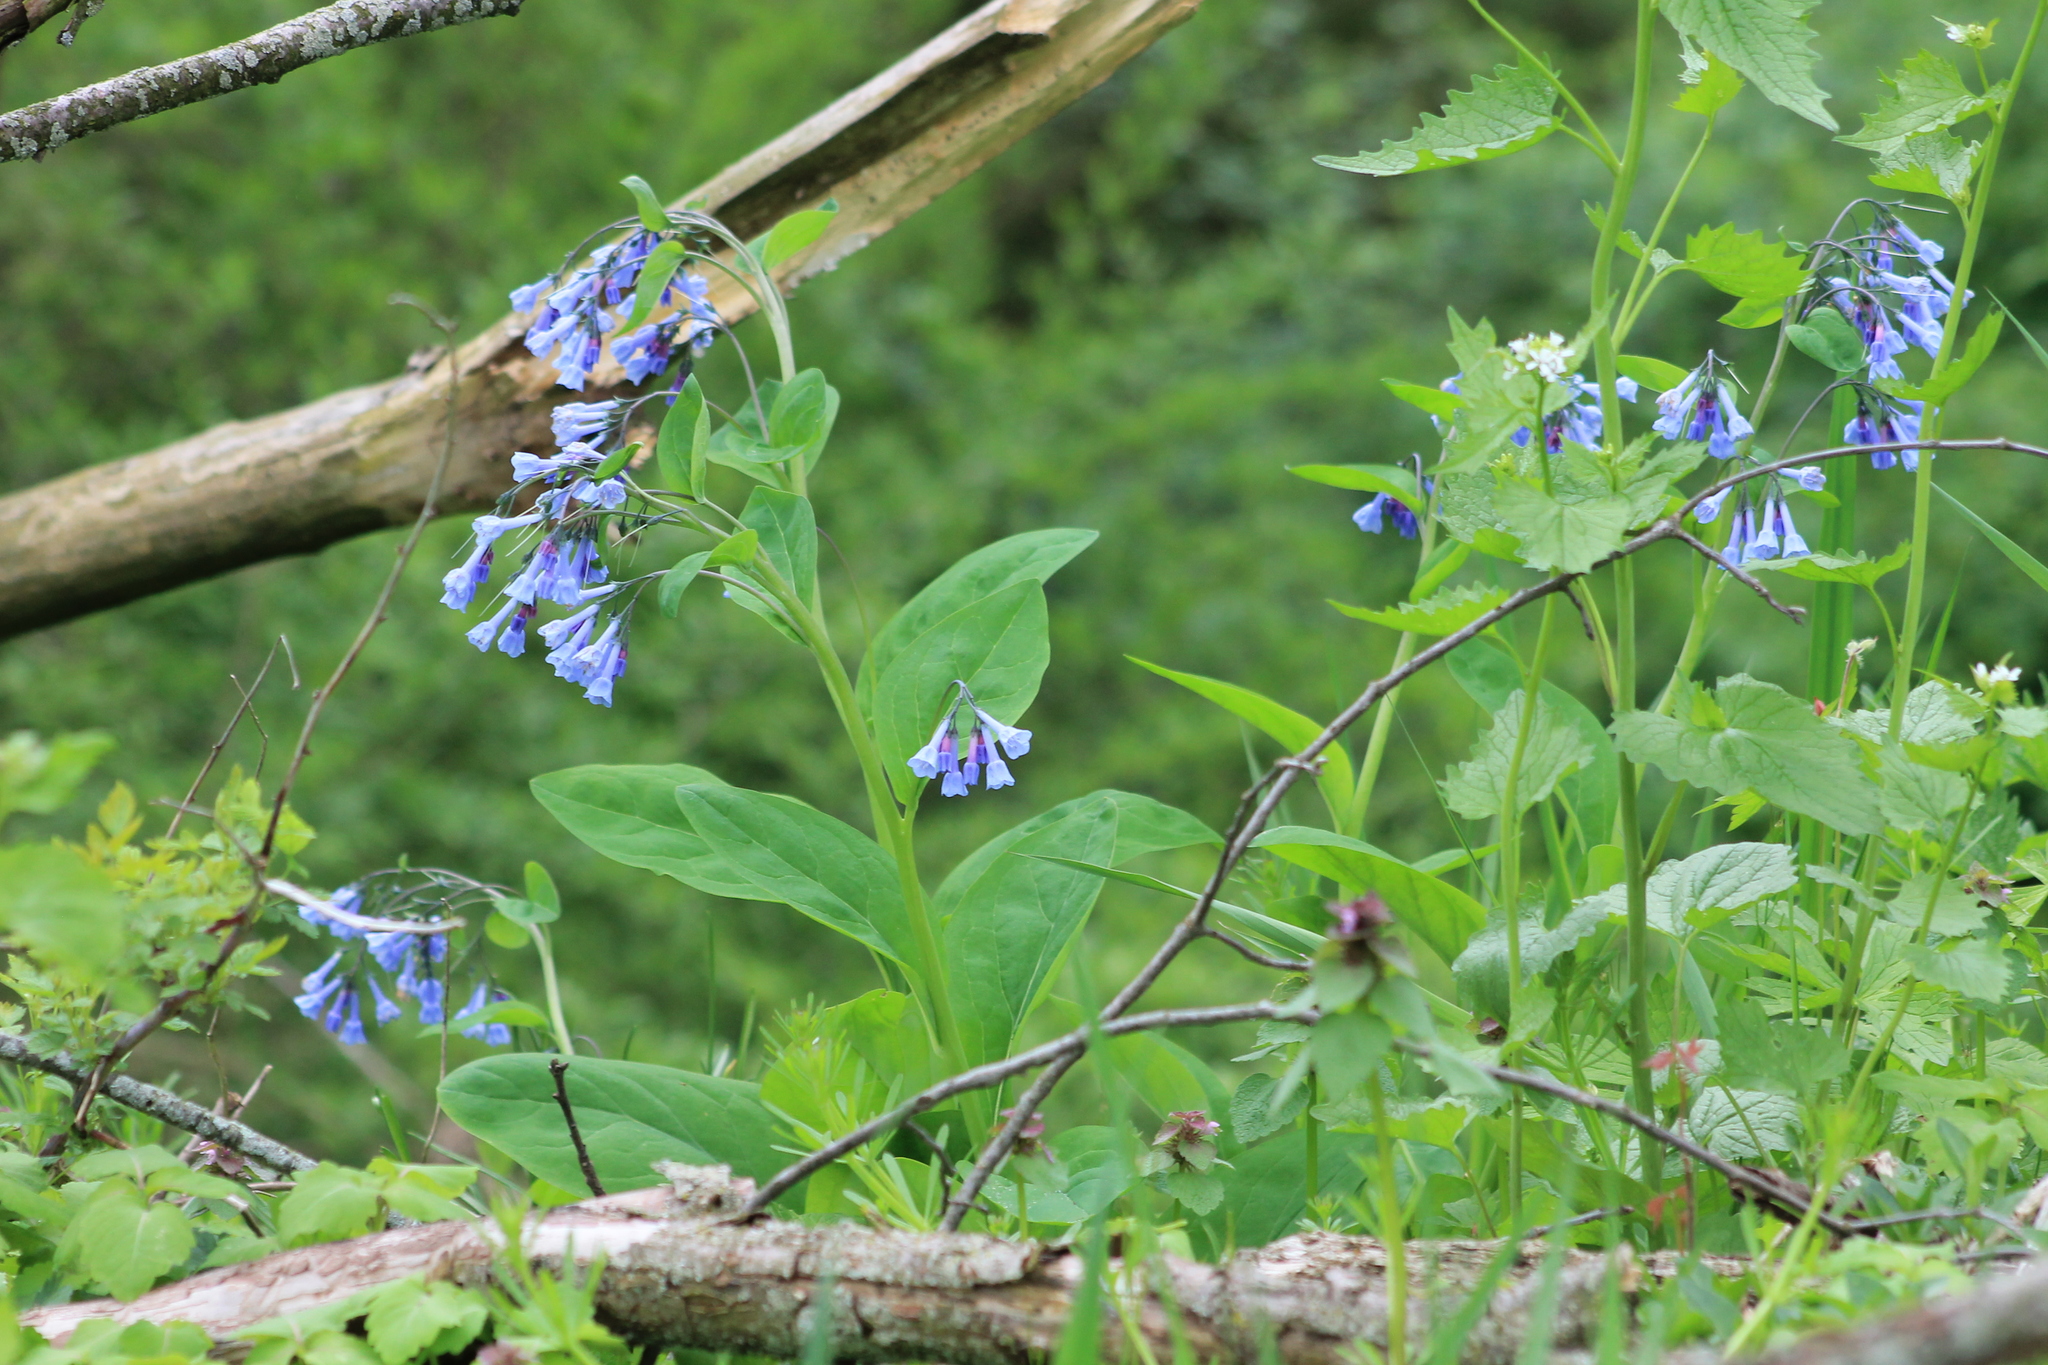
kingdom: Plantae
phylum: Tracheophyta
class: Magnoliopsida
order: Boraginales
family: Boraginaceae
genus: Mertensia
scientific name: Mertensia virginica
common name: Virginia bluebells
